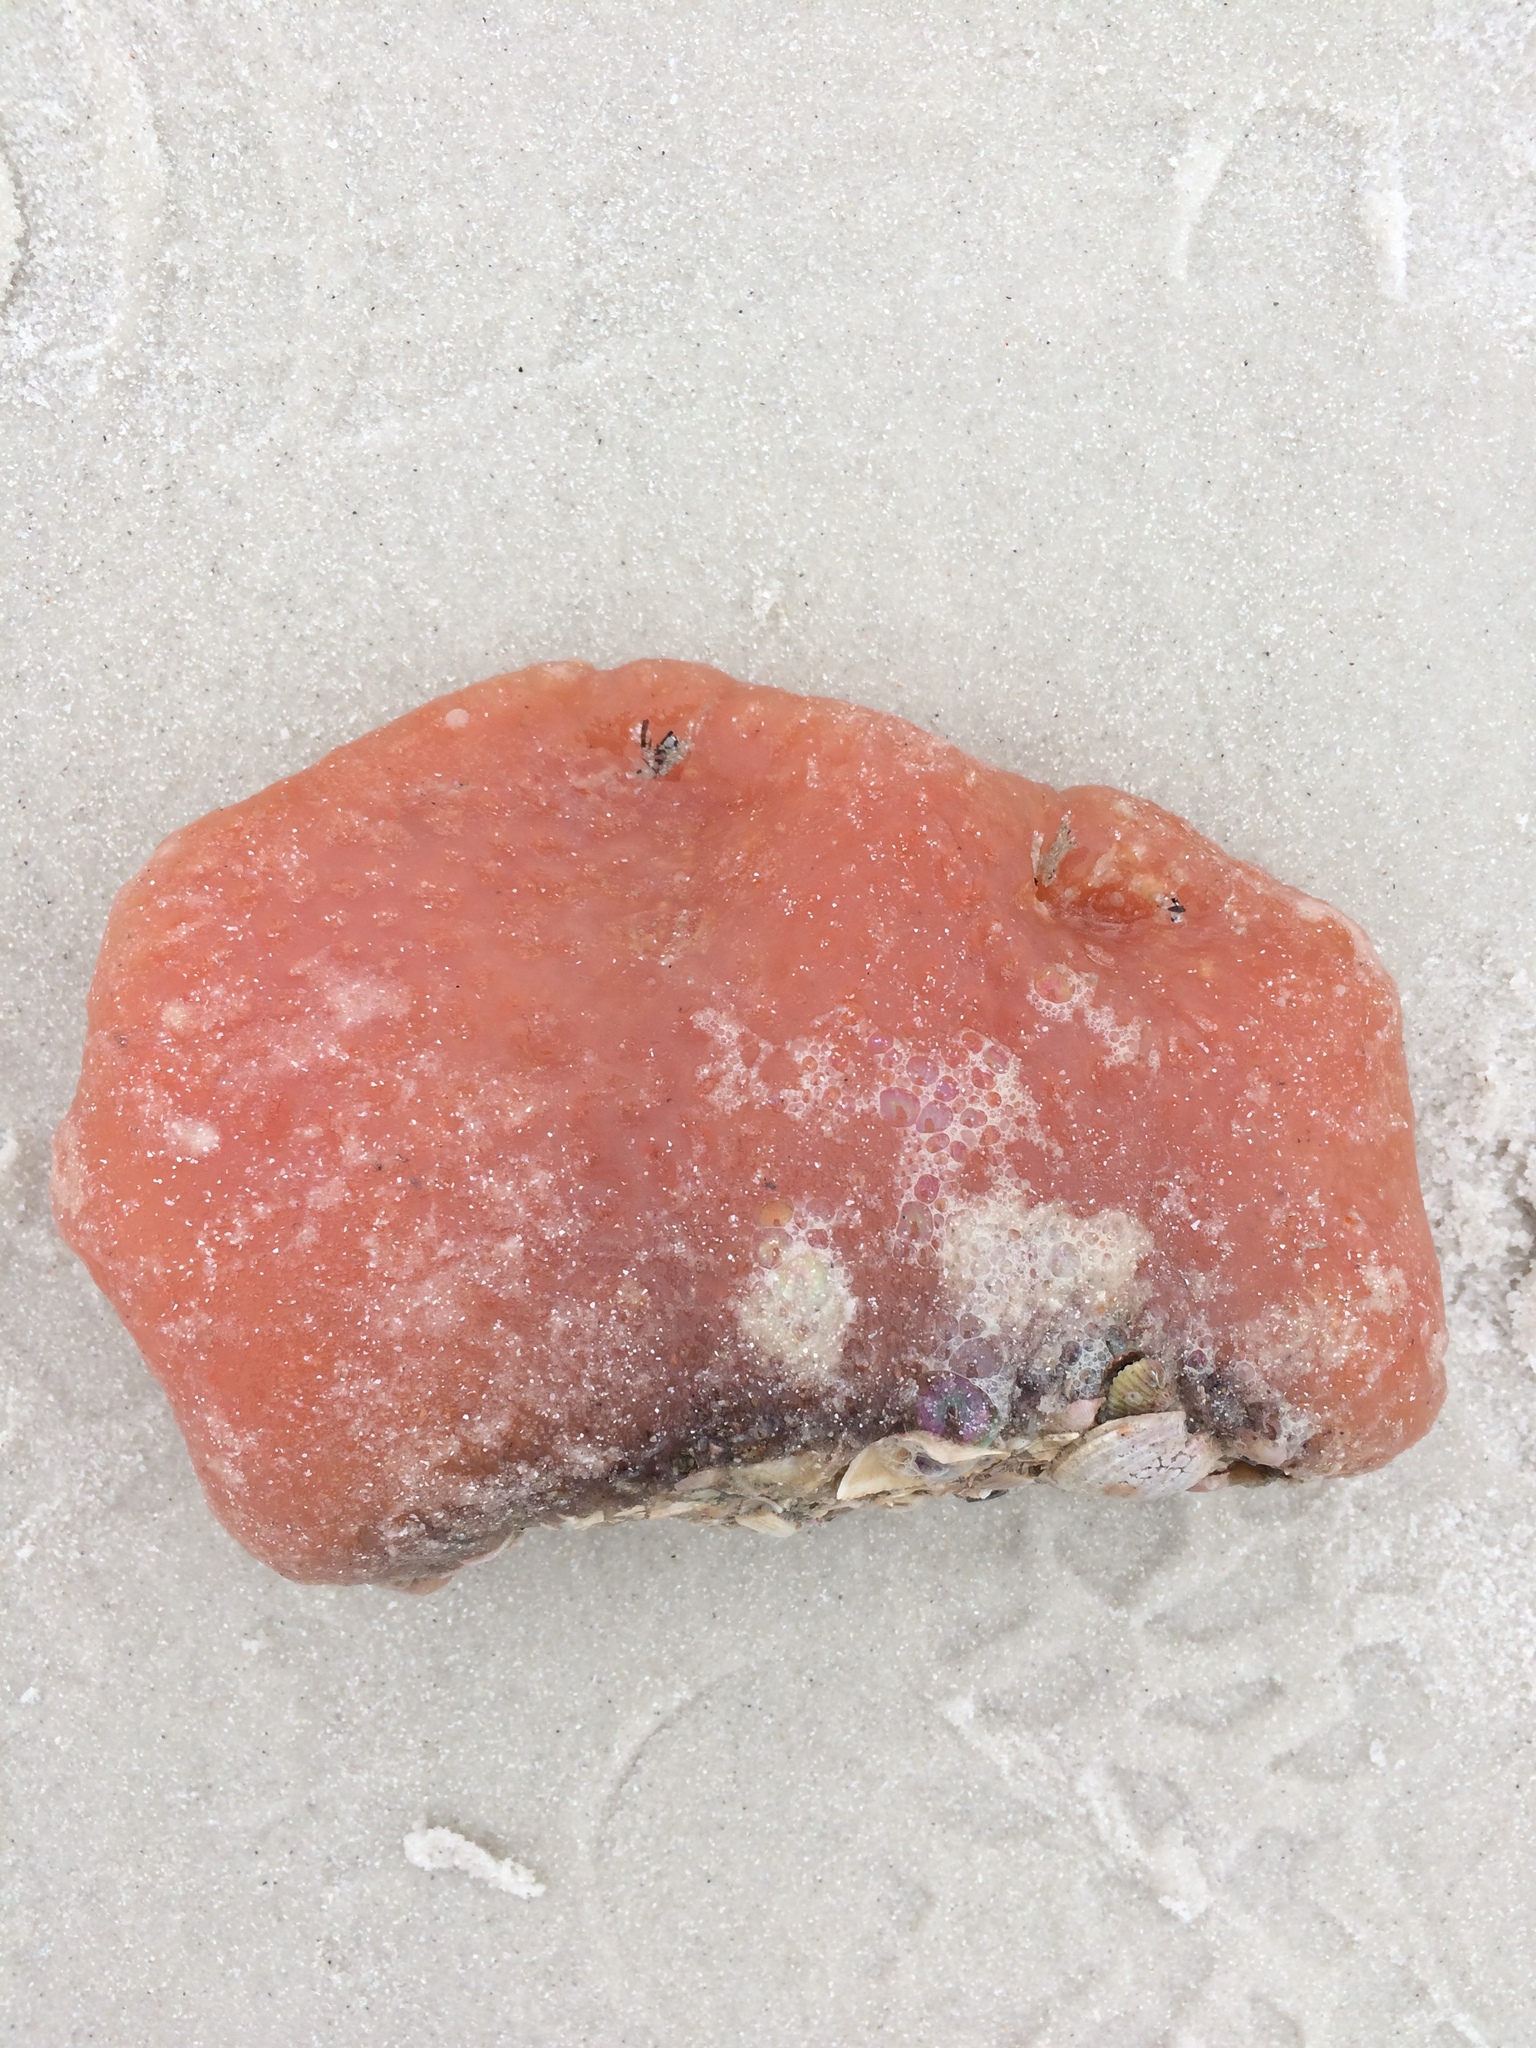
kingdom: Animalia
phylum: Chordata
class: Ascidiacea
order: Aplousobranchia
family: Polyclinidae
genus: Aplidium
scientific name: Aplidium stellatum
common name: Atlantic sea pork
